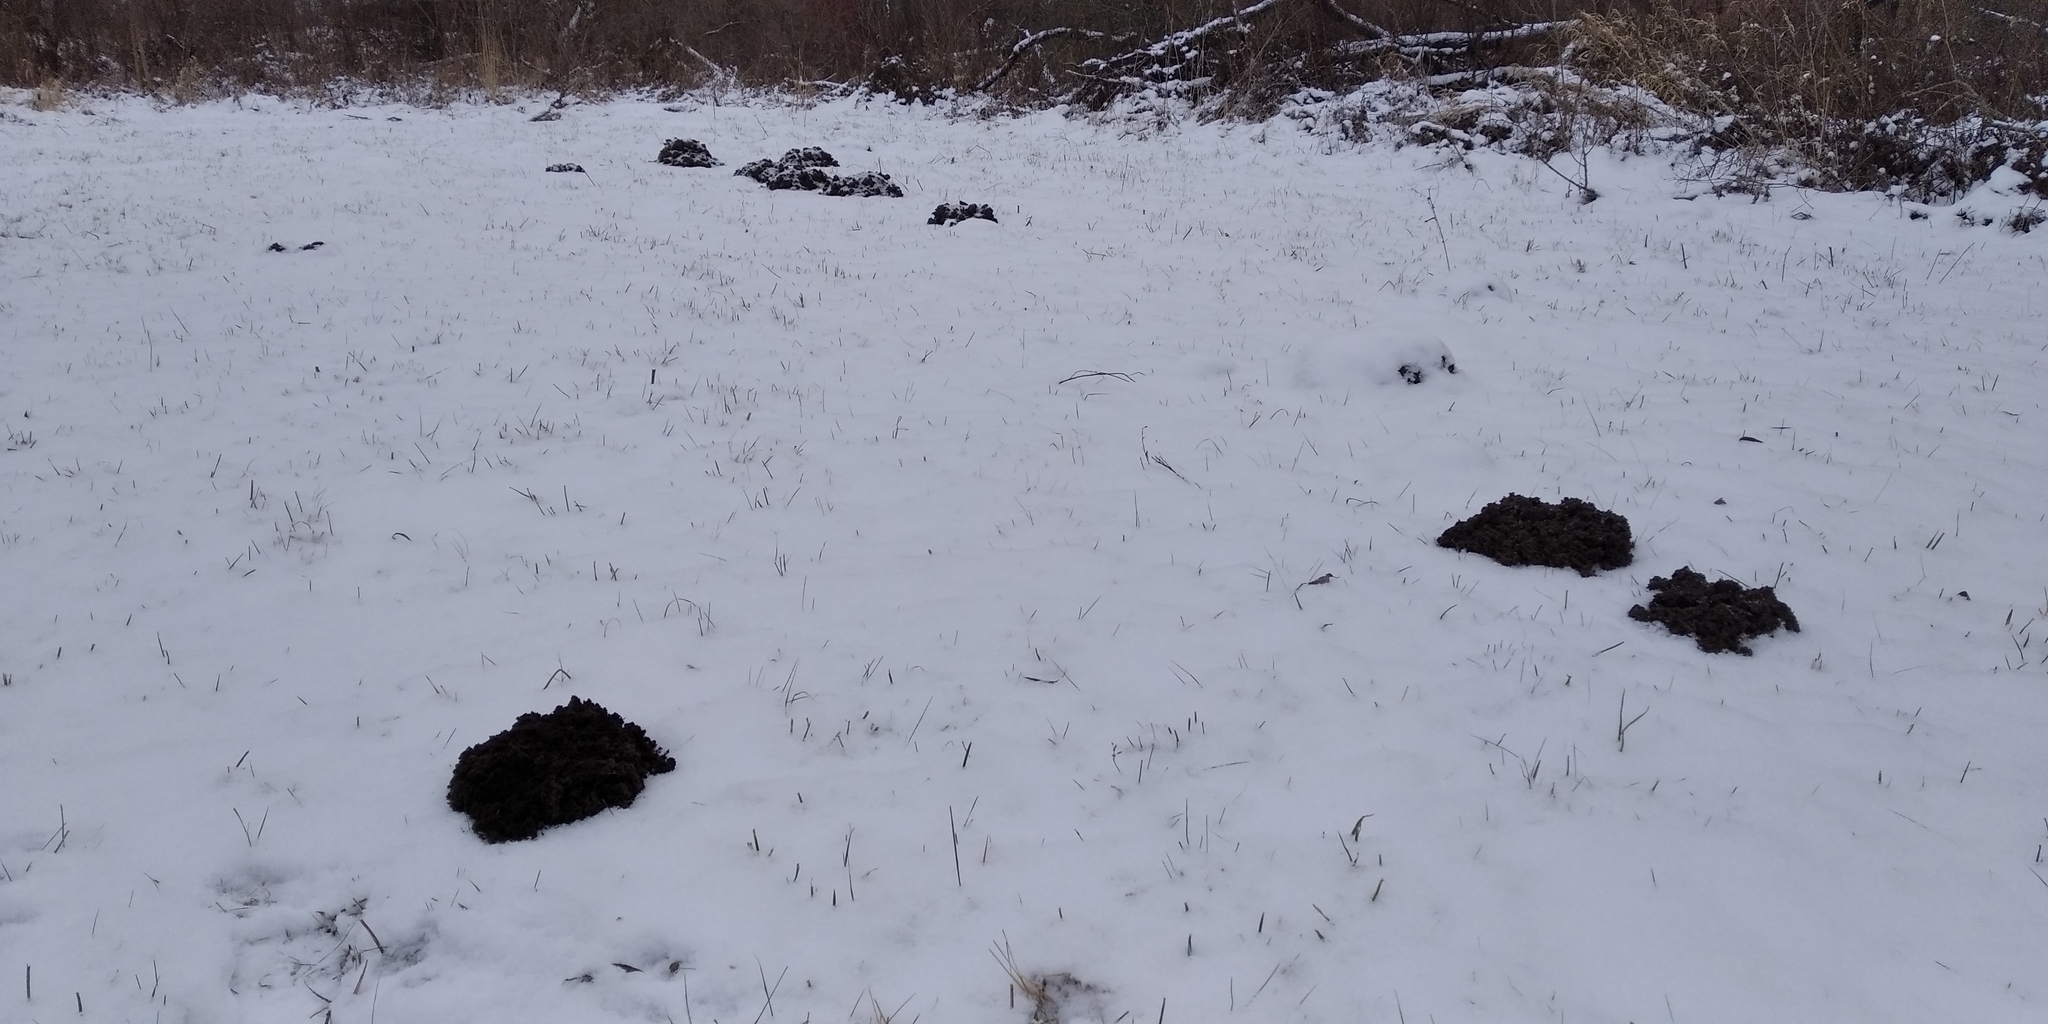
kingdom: Animalia
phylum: Chordata
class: Mammalia
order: Soricomorpha
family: Talpidae
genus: Talpa
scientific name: Talpa europaea
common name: European mole
